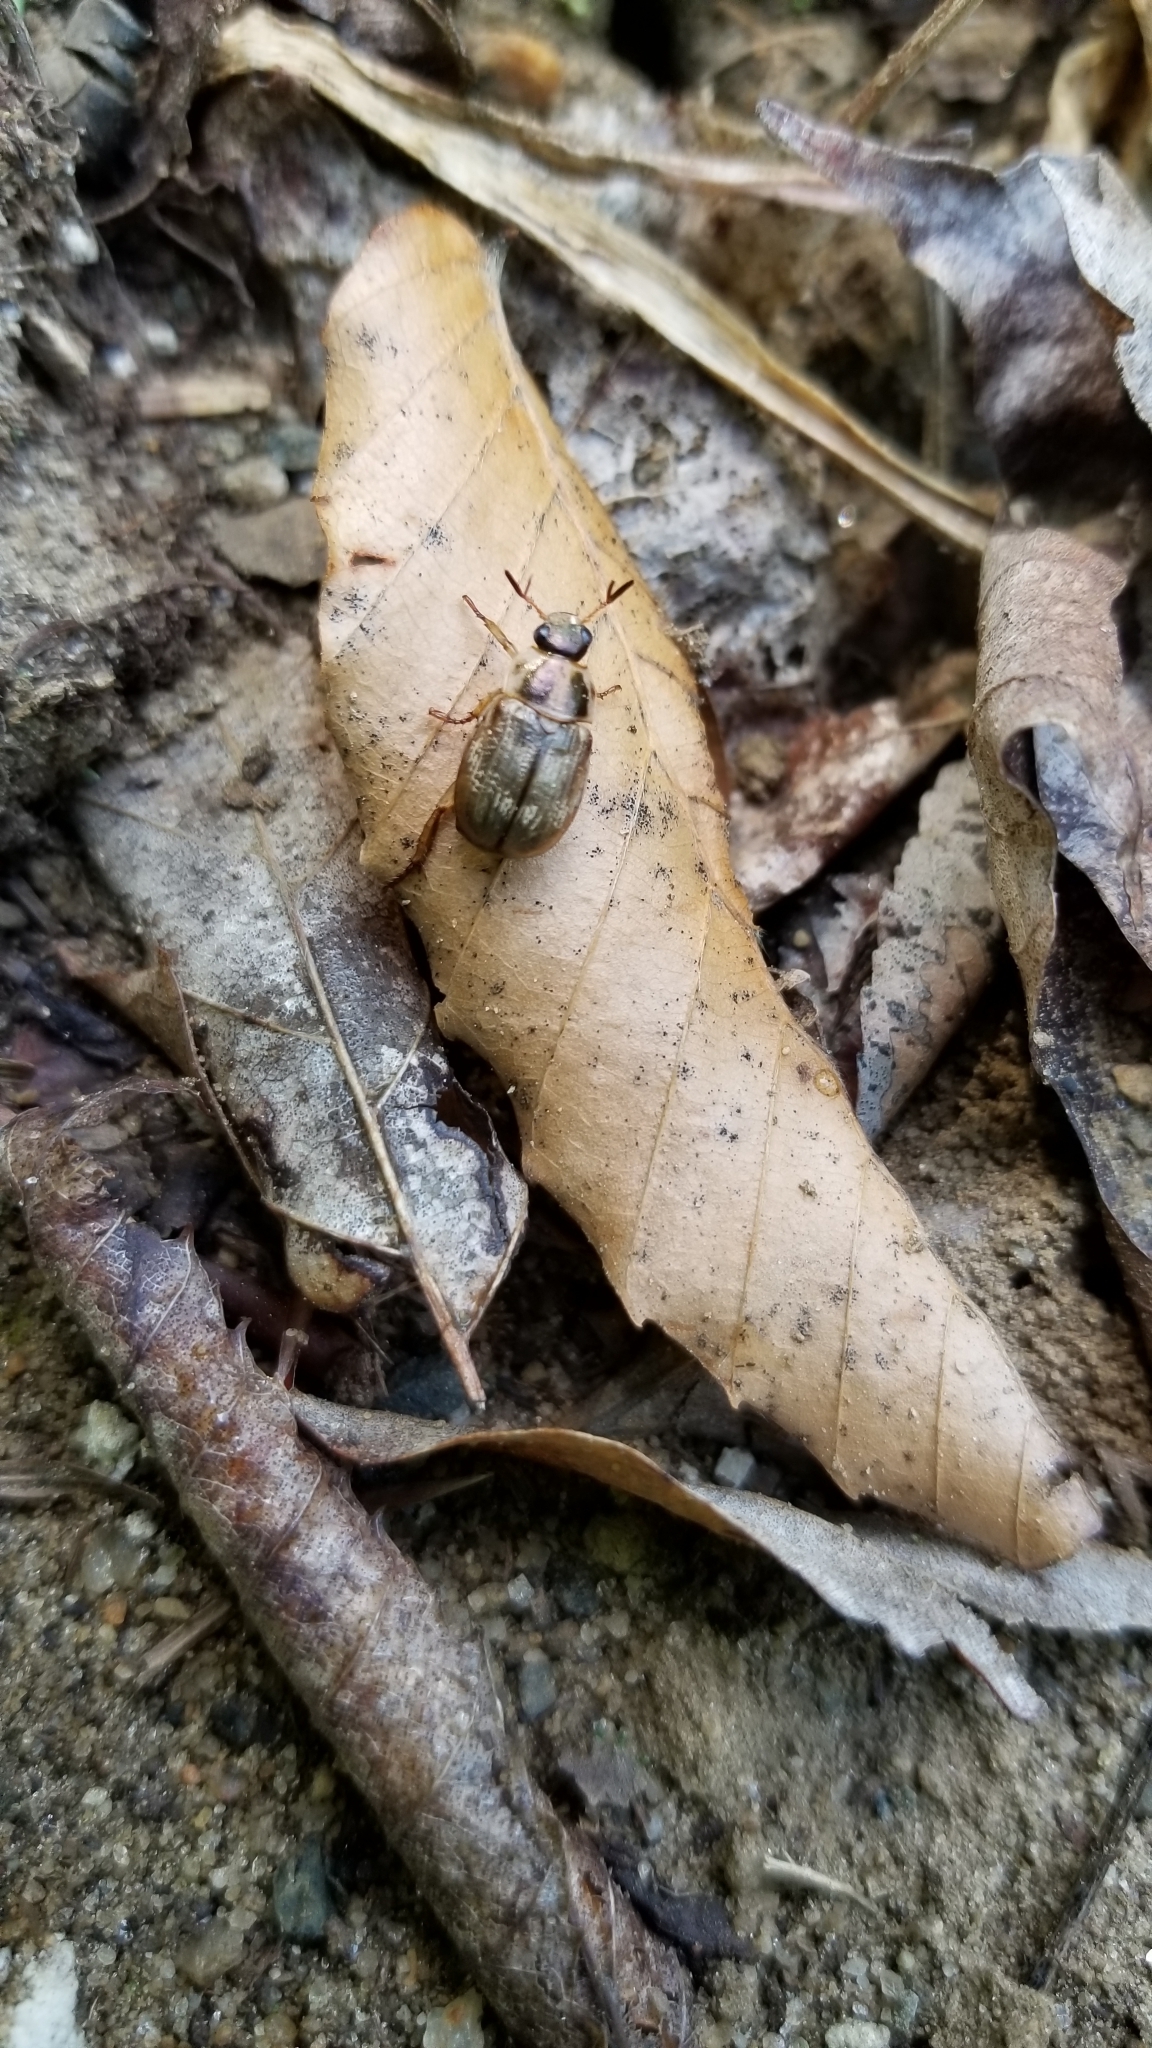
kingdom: Animalia
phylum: Arthropoda
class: Insecta
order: Coleoptera
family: Scarabaeidae
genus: Exomala
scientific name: Exomala orientalis
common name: Oriental beetle
